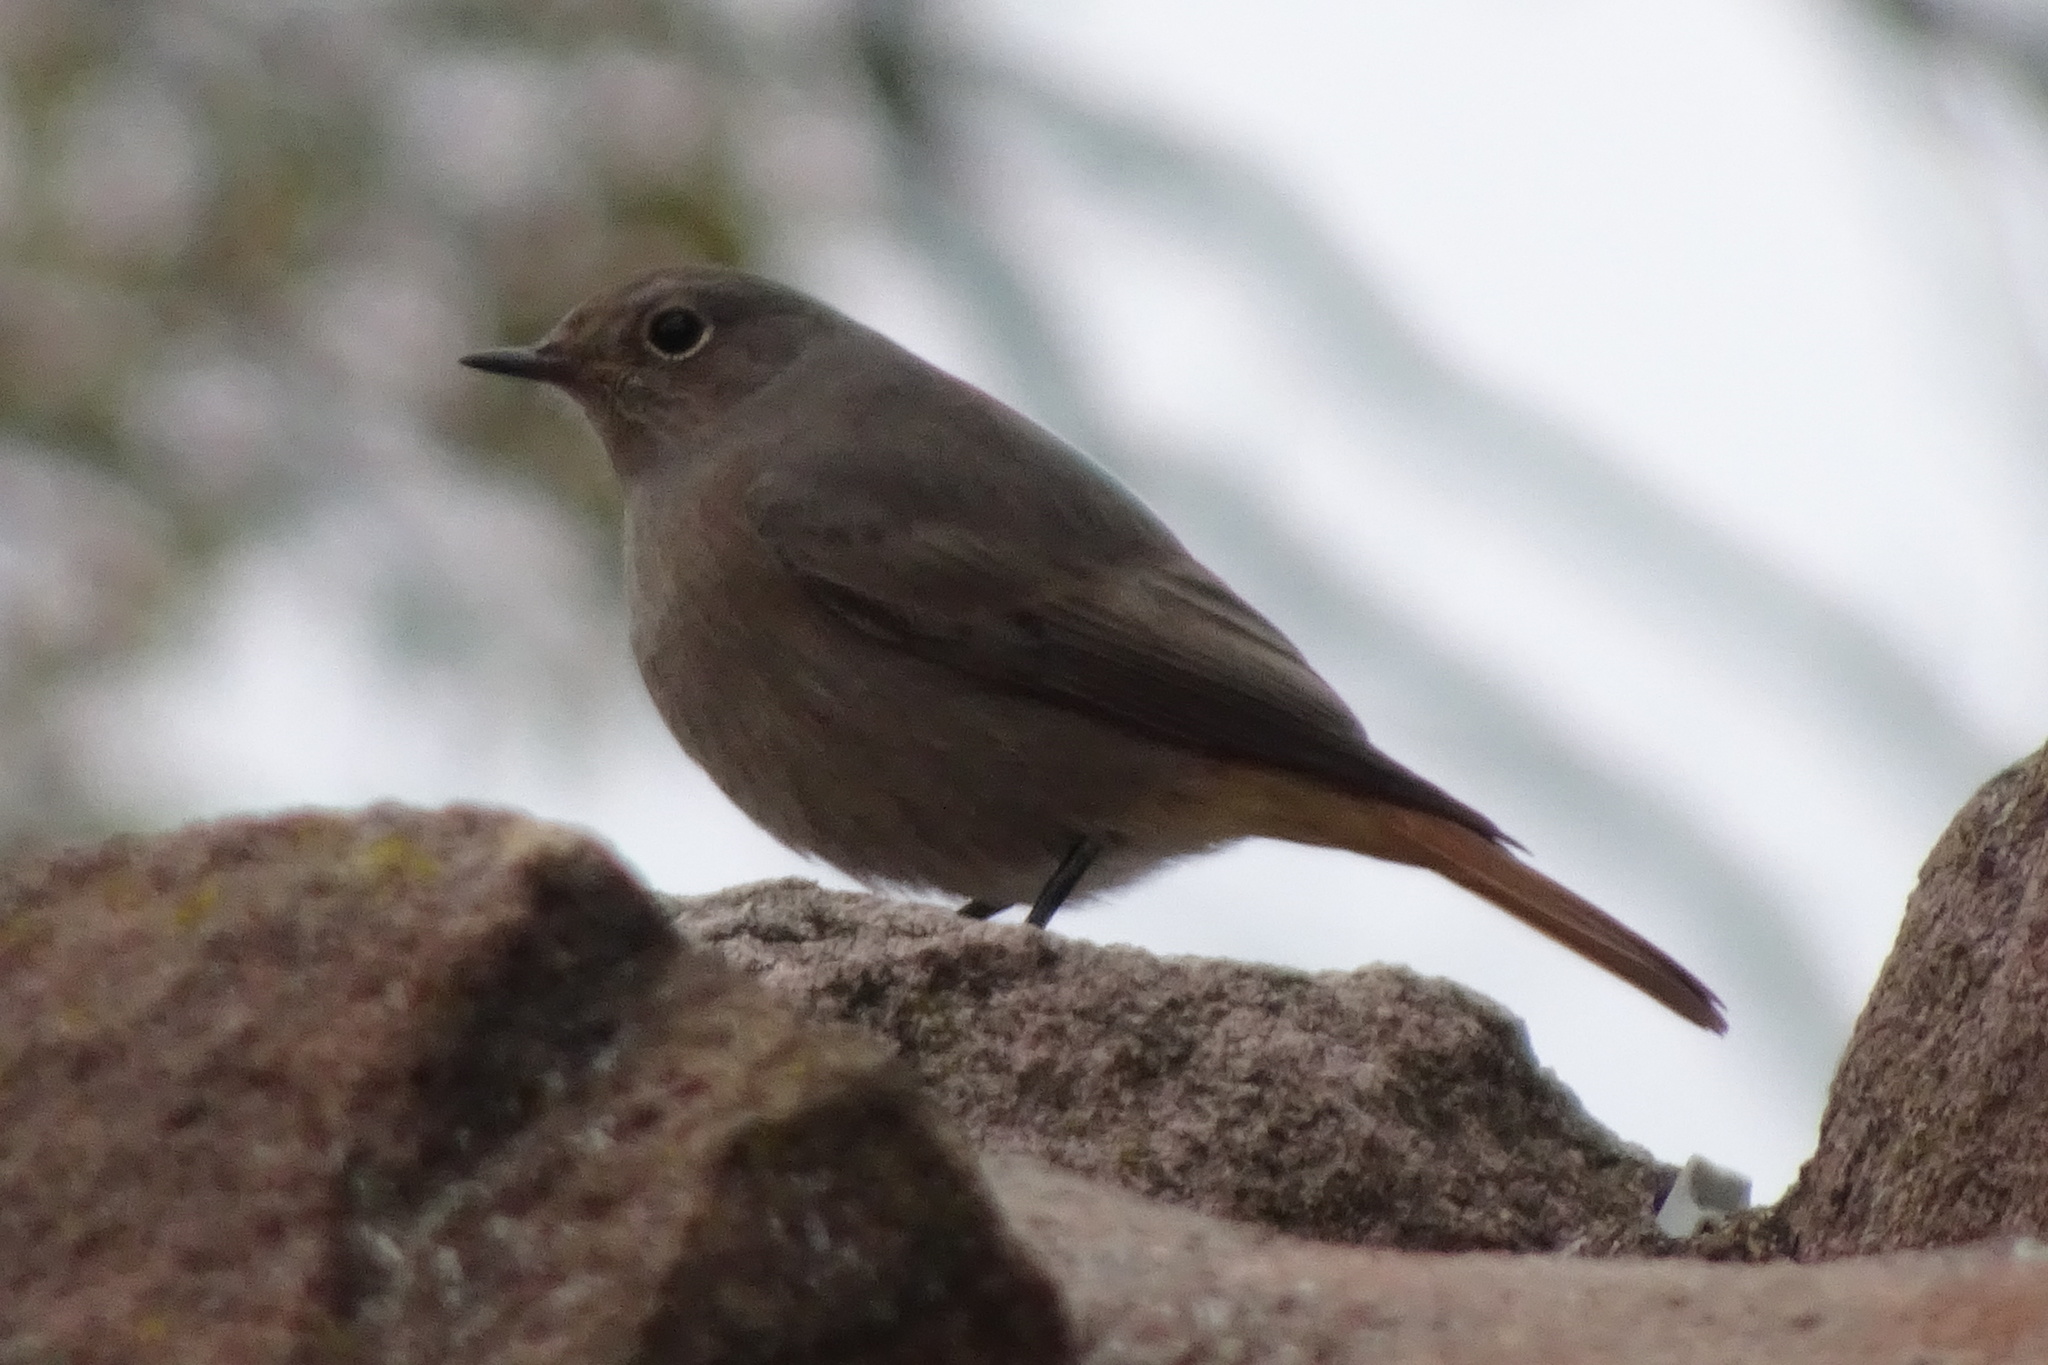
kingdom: Animalia
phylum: Chordata
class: Aves
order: Passeriformes
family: Muscicapidae
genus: Phoenicurus
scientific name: Phoenicurus ochruros
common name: Black redstart
